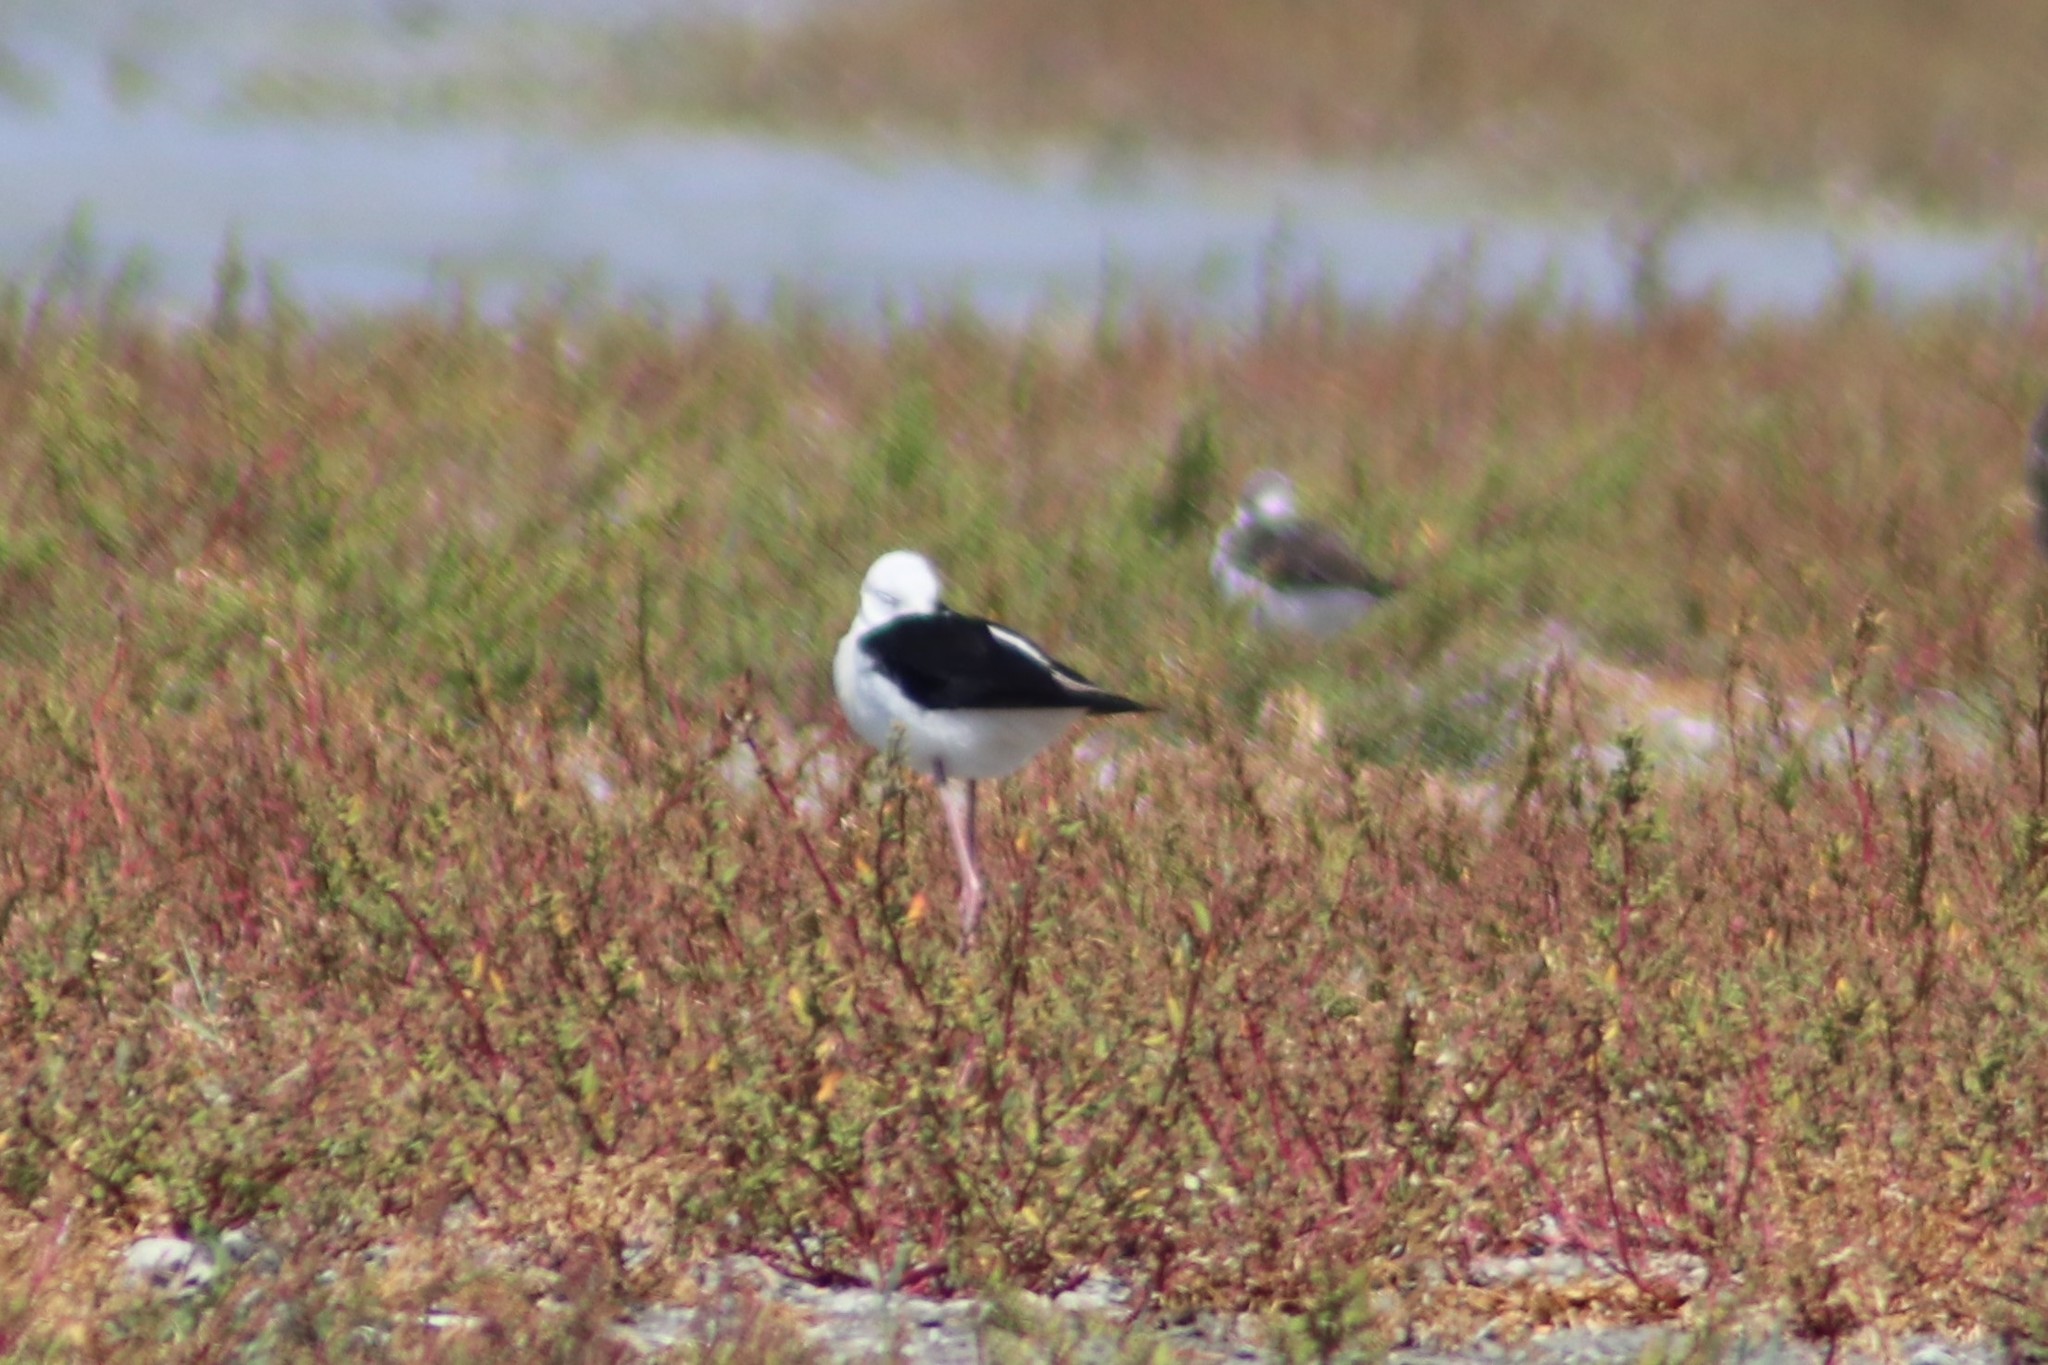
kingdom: Animalia
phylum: Chordata
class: Aves
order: Charadriiformes
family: Recurvirostridae
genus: Himantopus
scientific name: Himantopus himantopus
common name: Black-winged stilt
